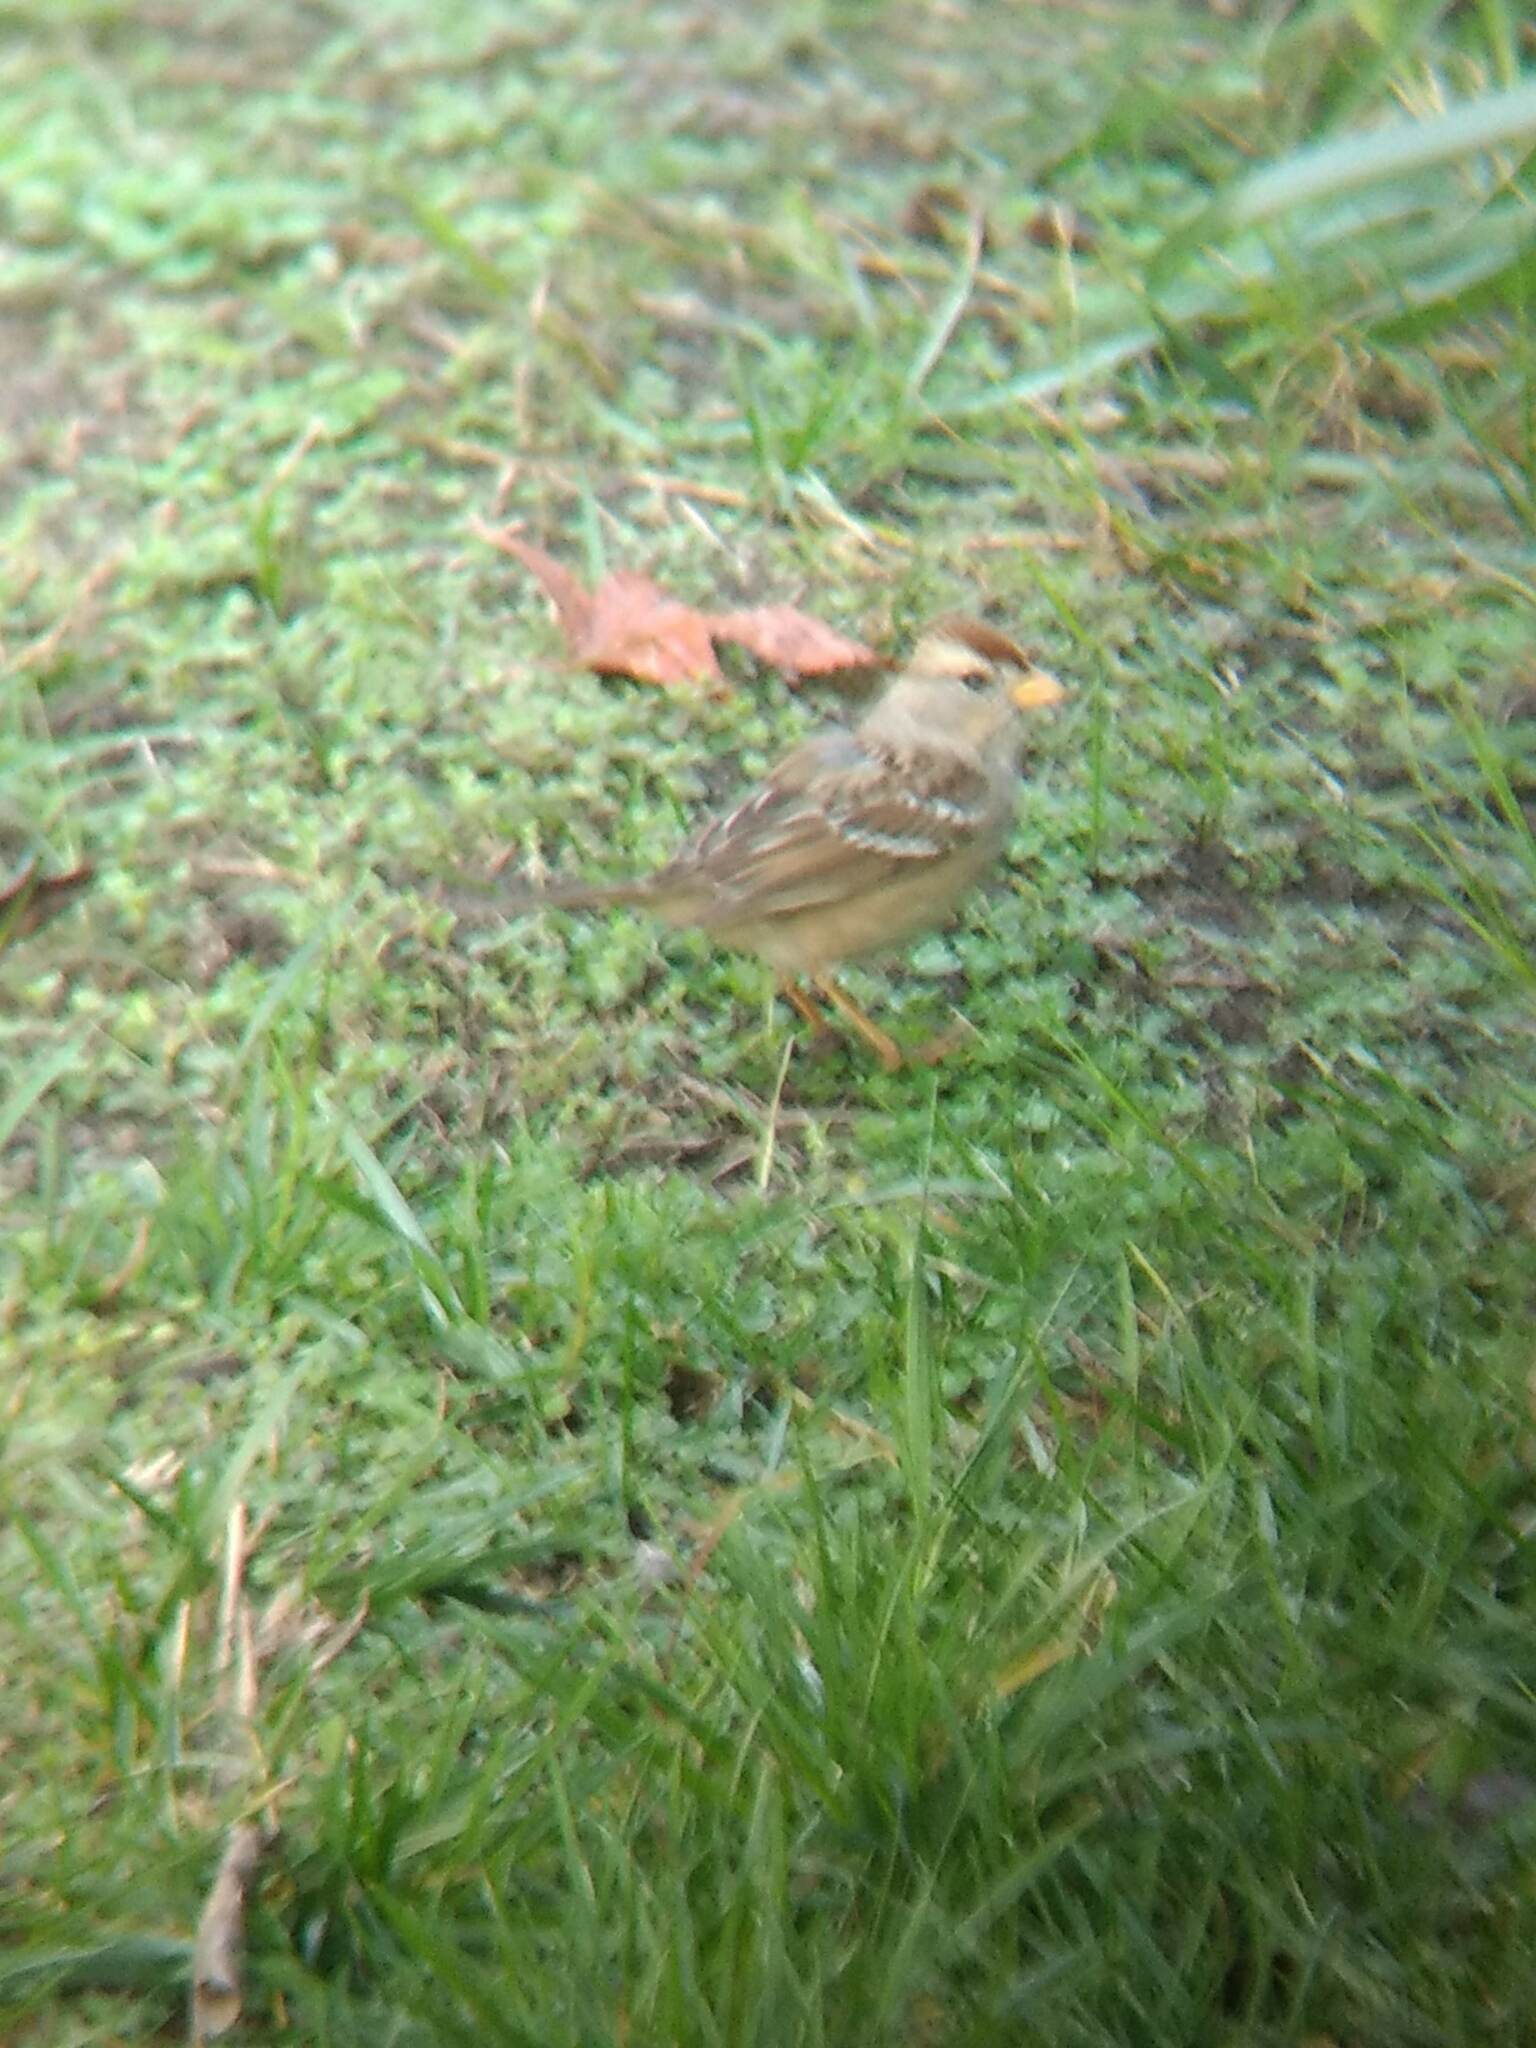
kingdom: Animalia
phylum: Chordata
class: Aves
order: Passeriformes
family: Passerellidae
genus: Zonotrichia
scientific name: Zonotrichia leucophrys
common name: White-crowned sparrow
